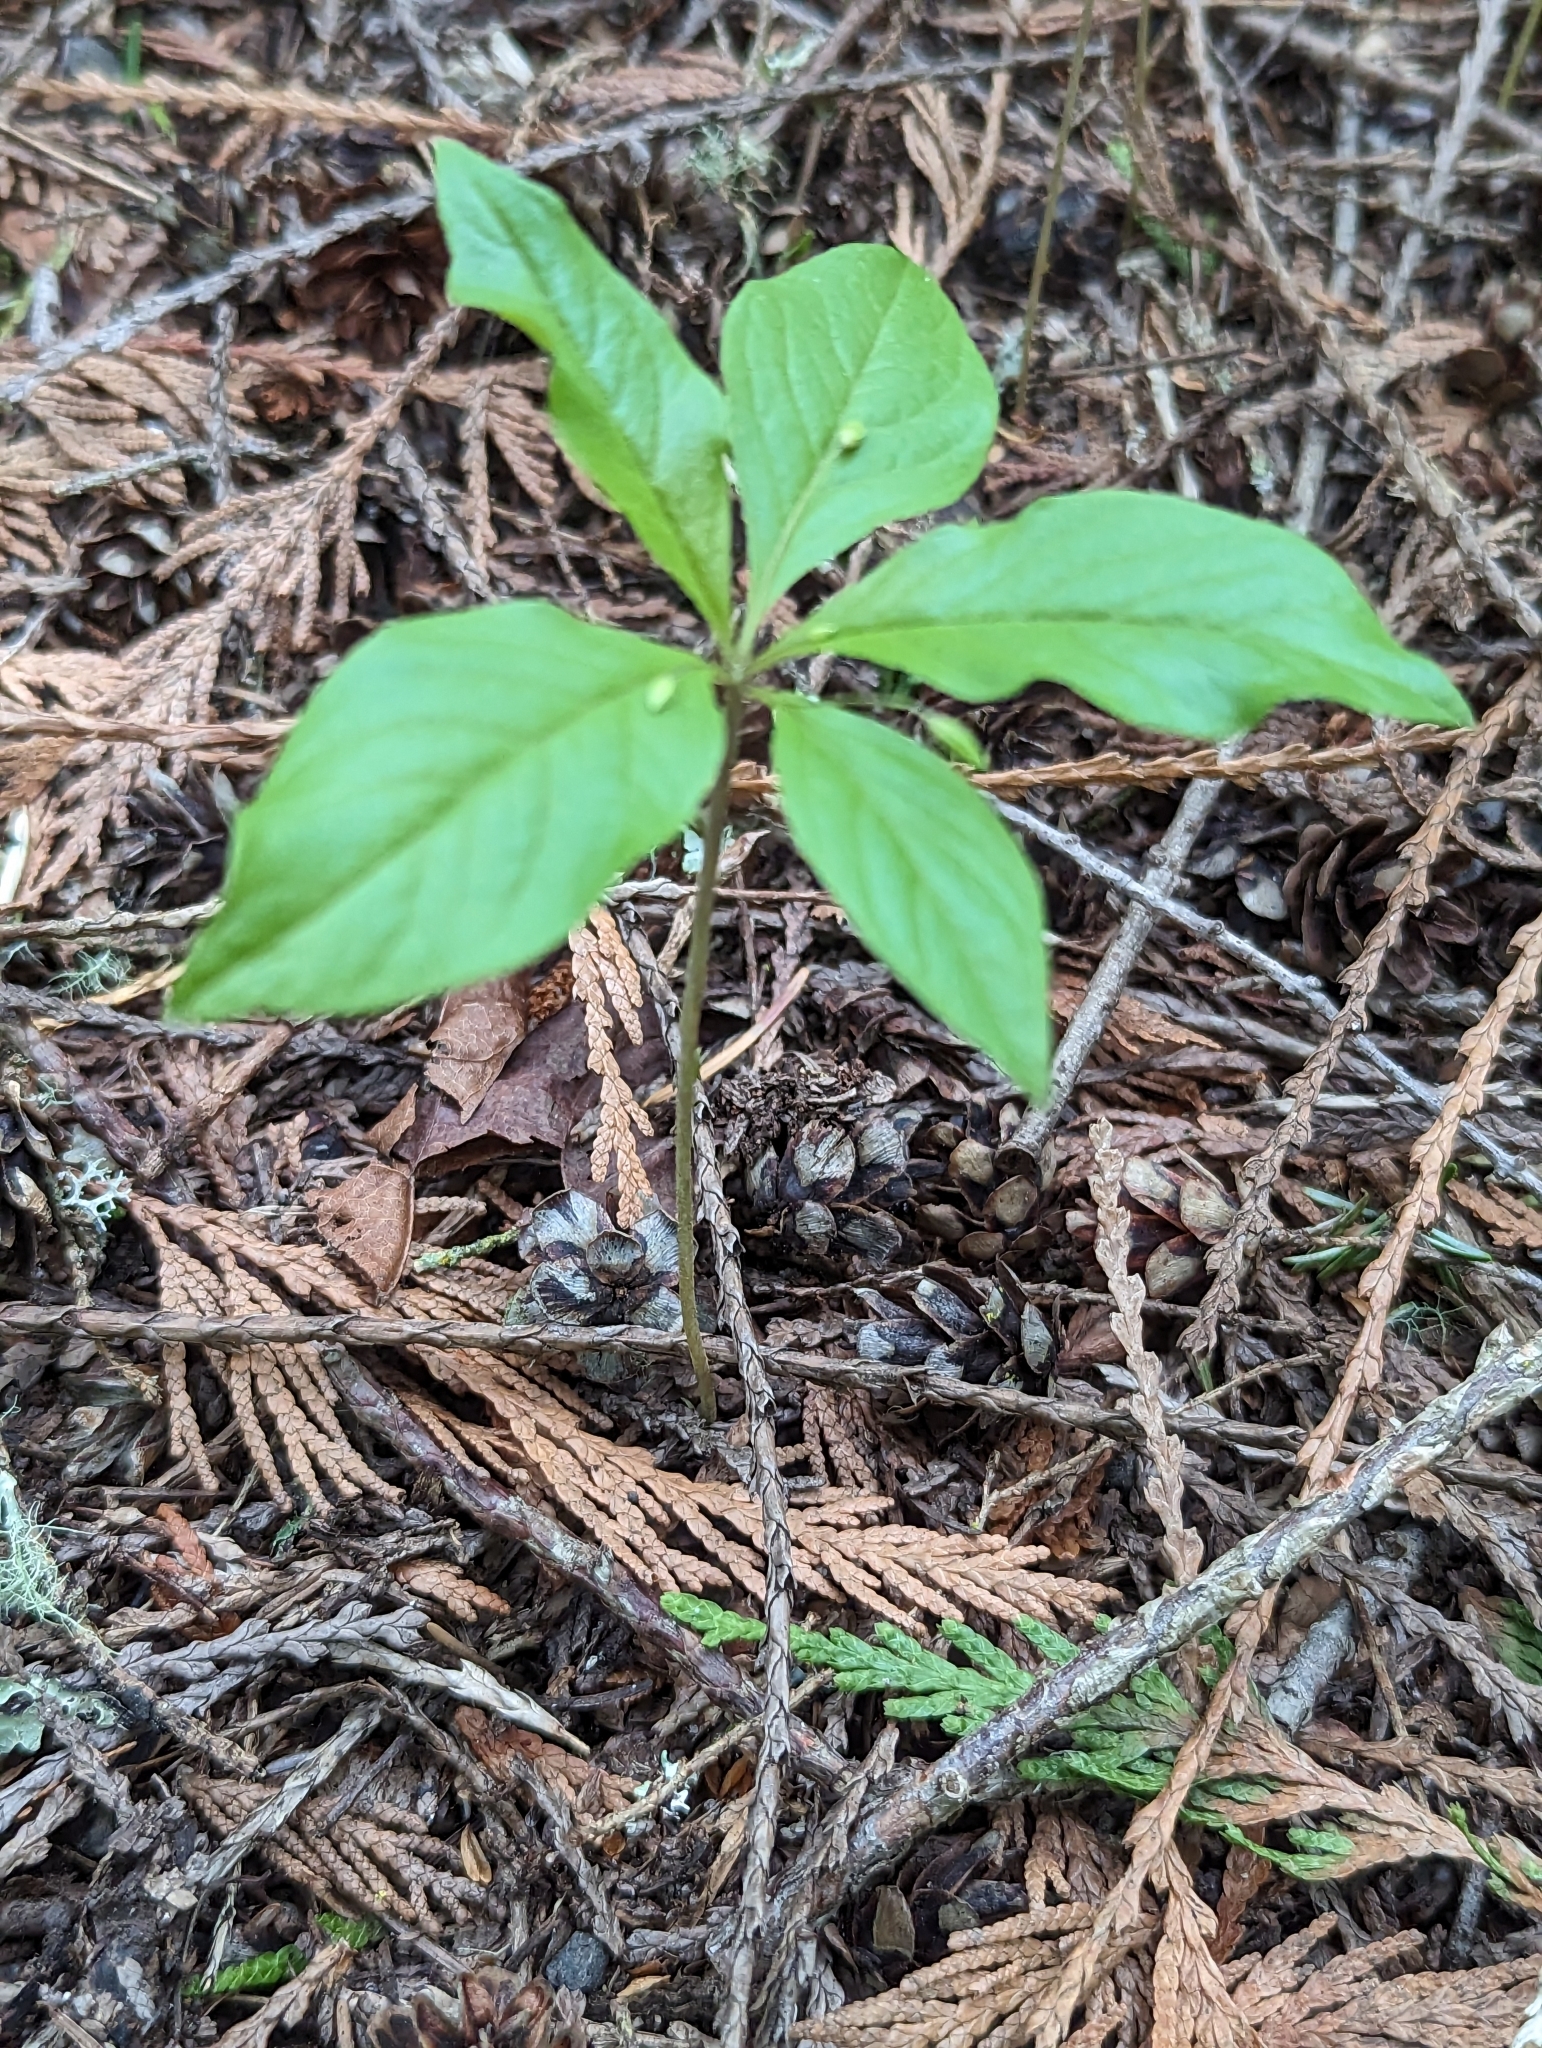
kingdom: Plantae
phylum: Tracheophyta
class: Magnoliopsida
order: Ericales
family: Primulaceae
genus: Lysimachia
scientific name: Lysimachia latifolia
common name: Pacific starflower
